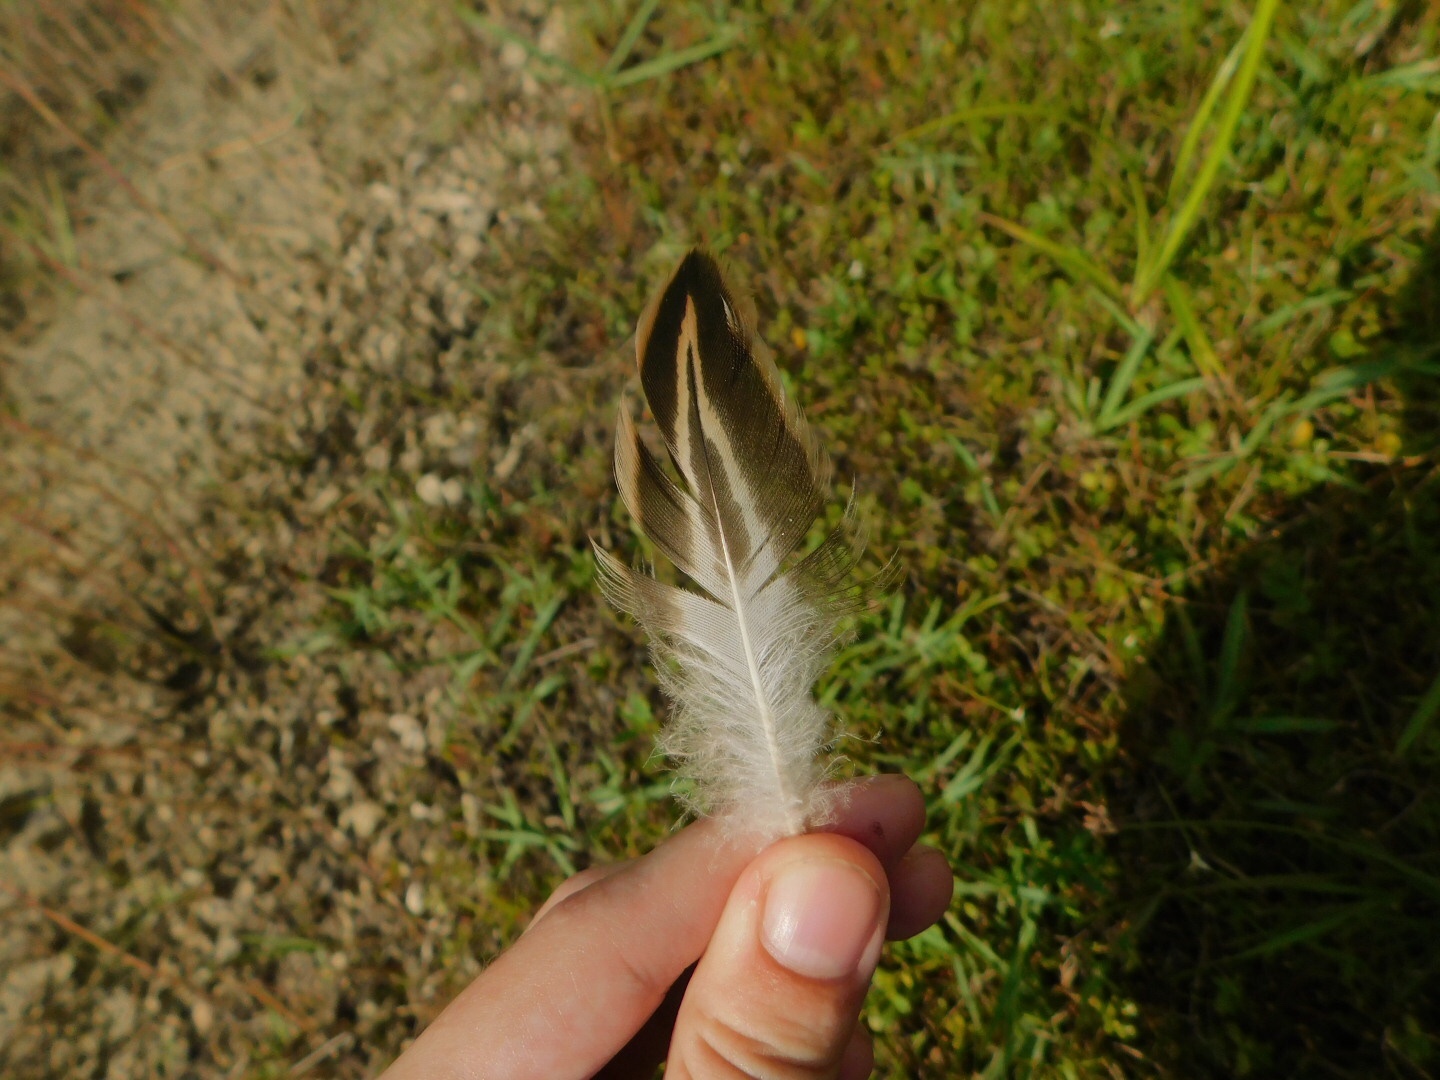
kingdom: Animalia
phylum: Chordata
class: Aves
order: Anseriformes
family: Anatidae
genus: Anas
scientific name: Anas
